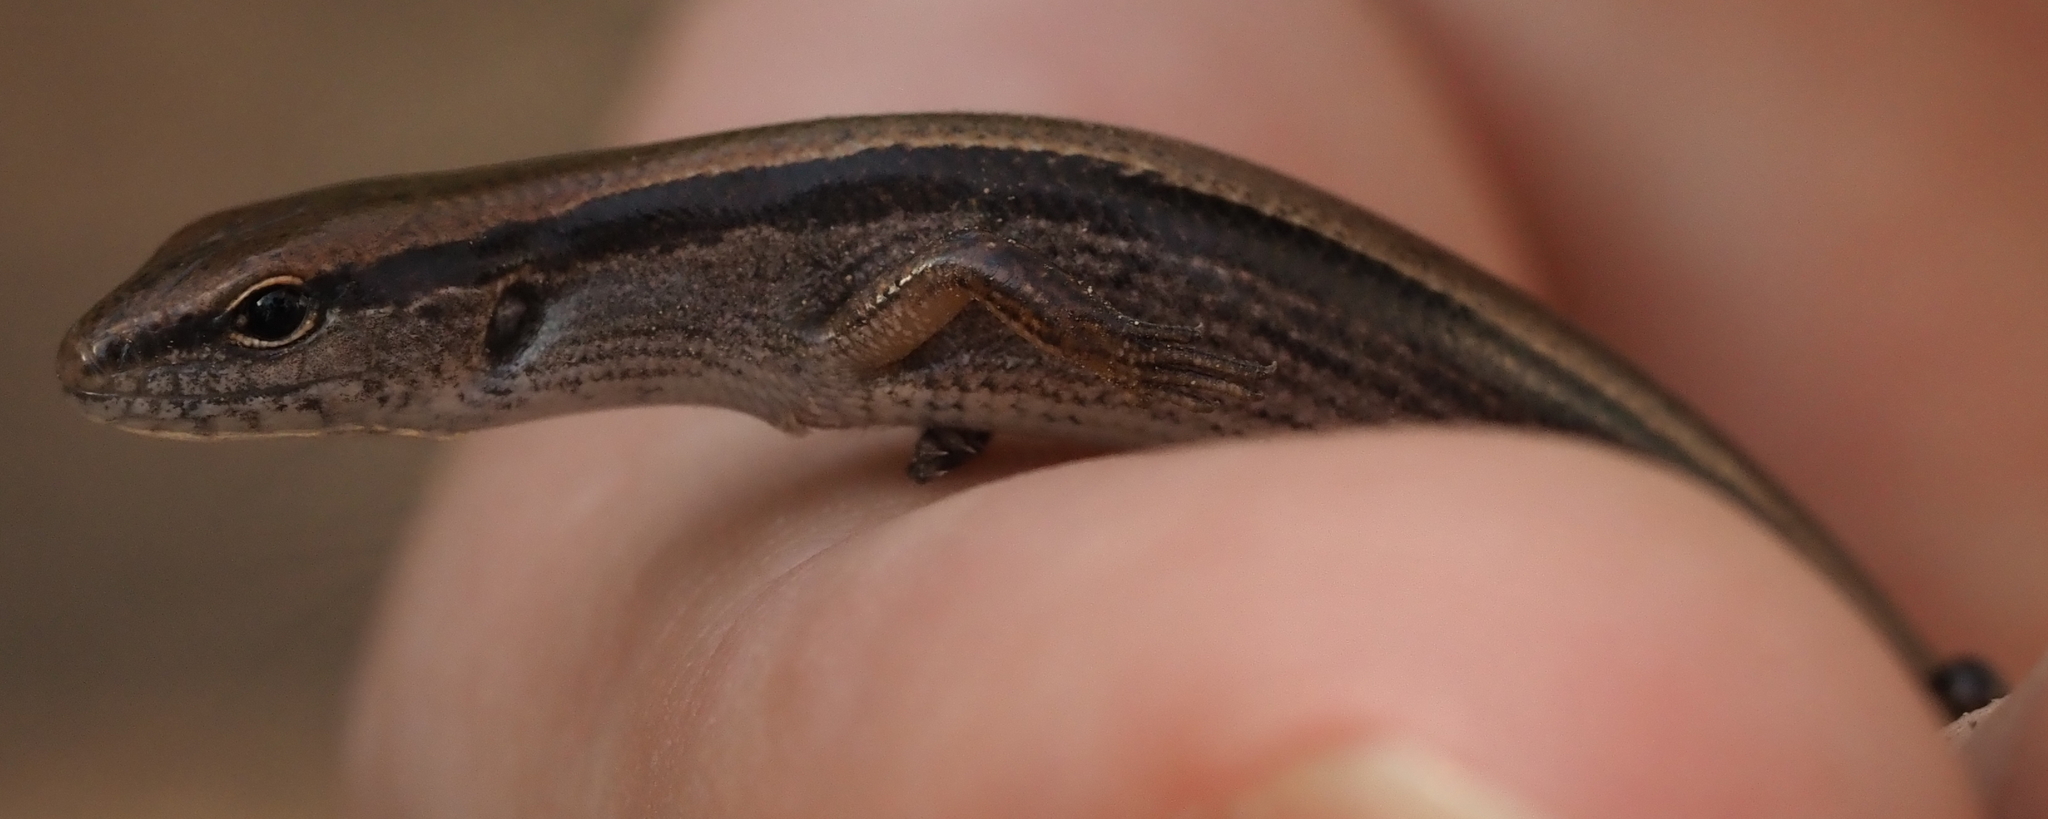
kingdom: Animalia
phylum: Chordata
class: Squamata
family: Scincidae
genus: Scincella
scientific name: Scincella lateralis
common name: Ground skink
